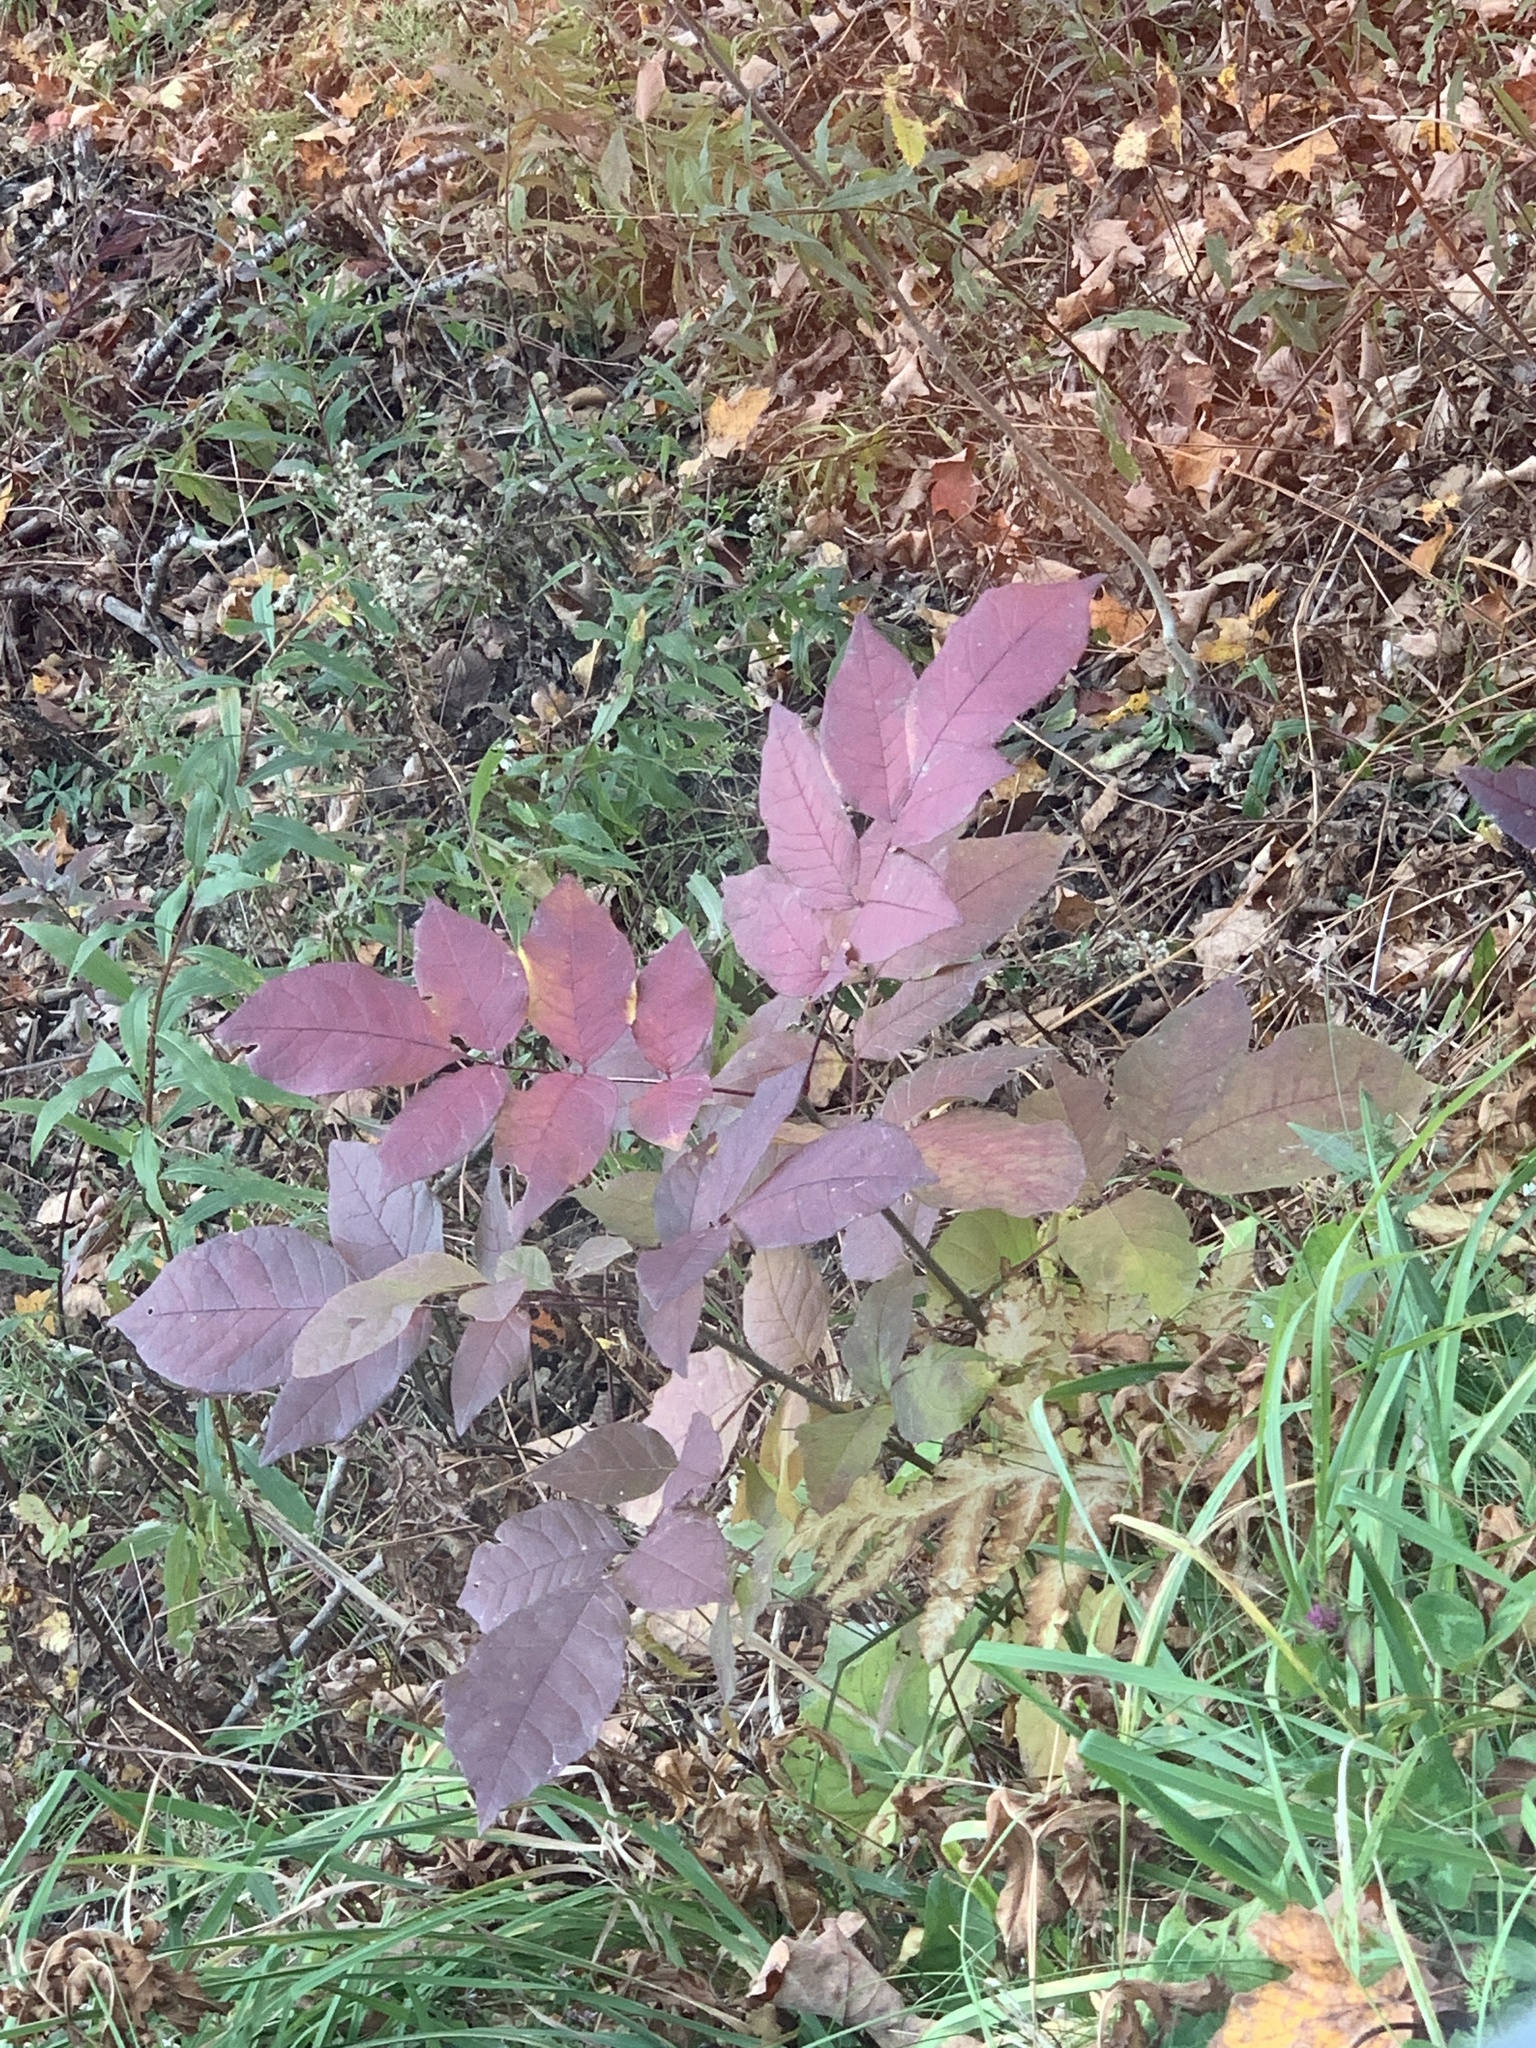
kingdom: Plantae
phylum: Tracheophyta
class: Magnoliopsida
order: Lamiales
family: Oleaceae
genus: Fraxinus
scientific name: Fraxinus americana
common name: White ash
